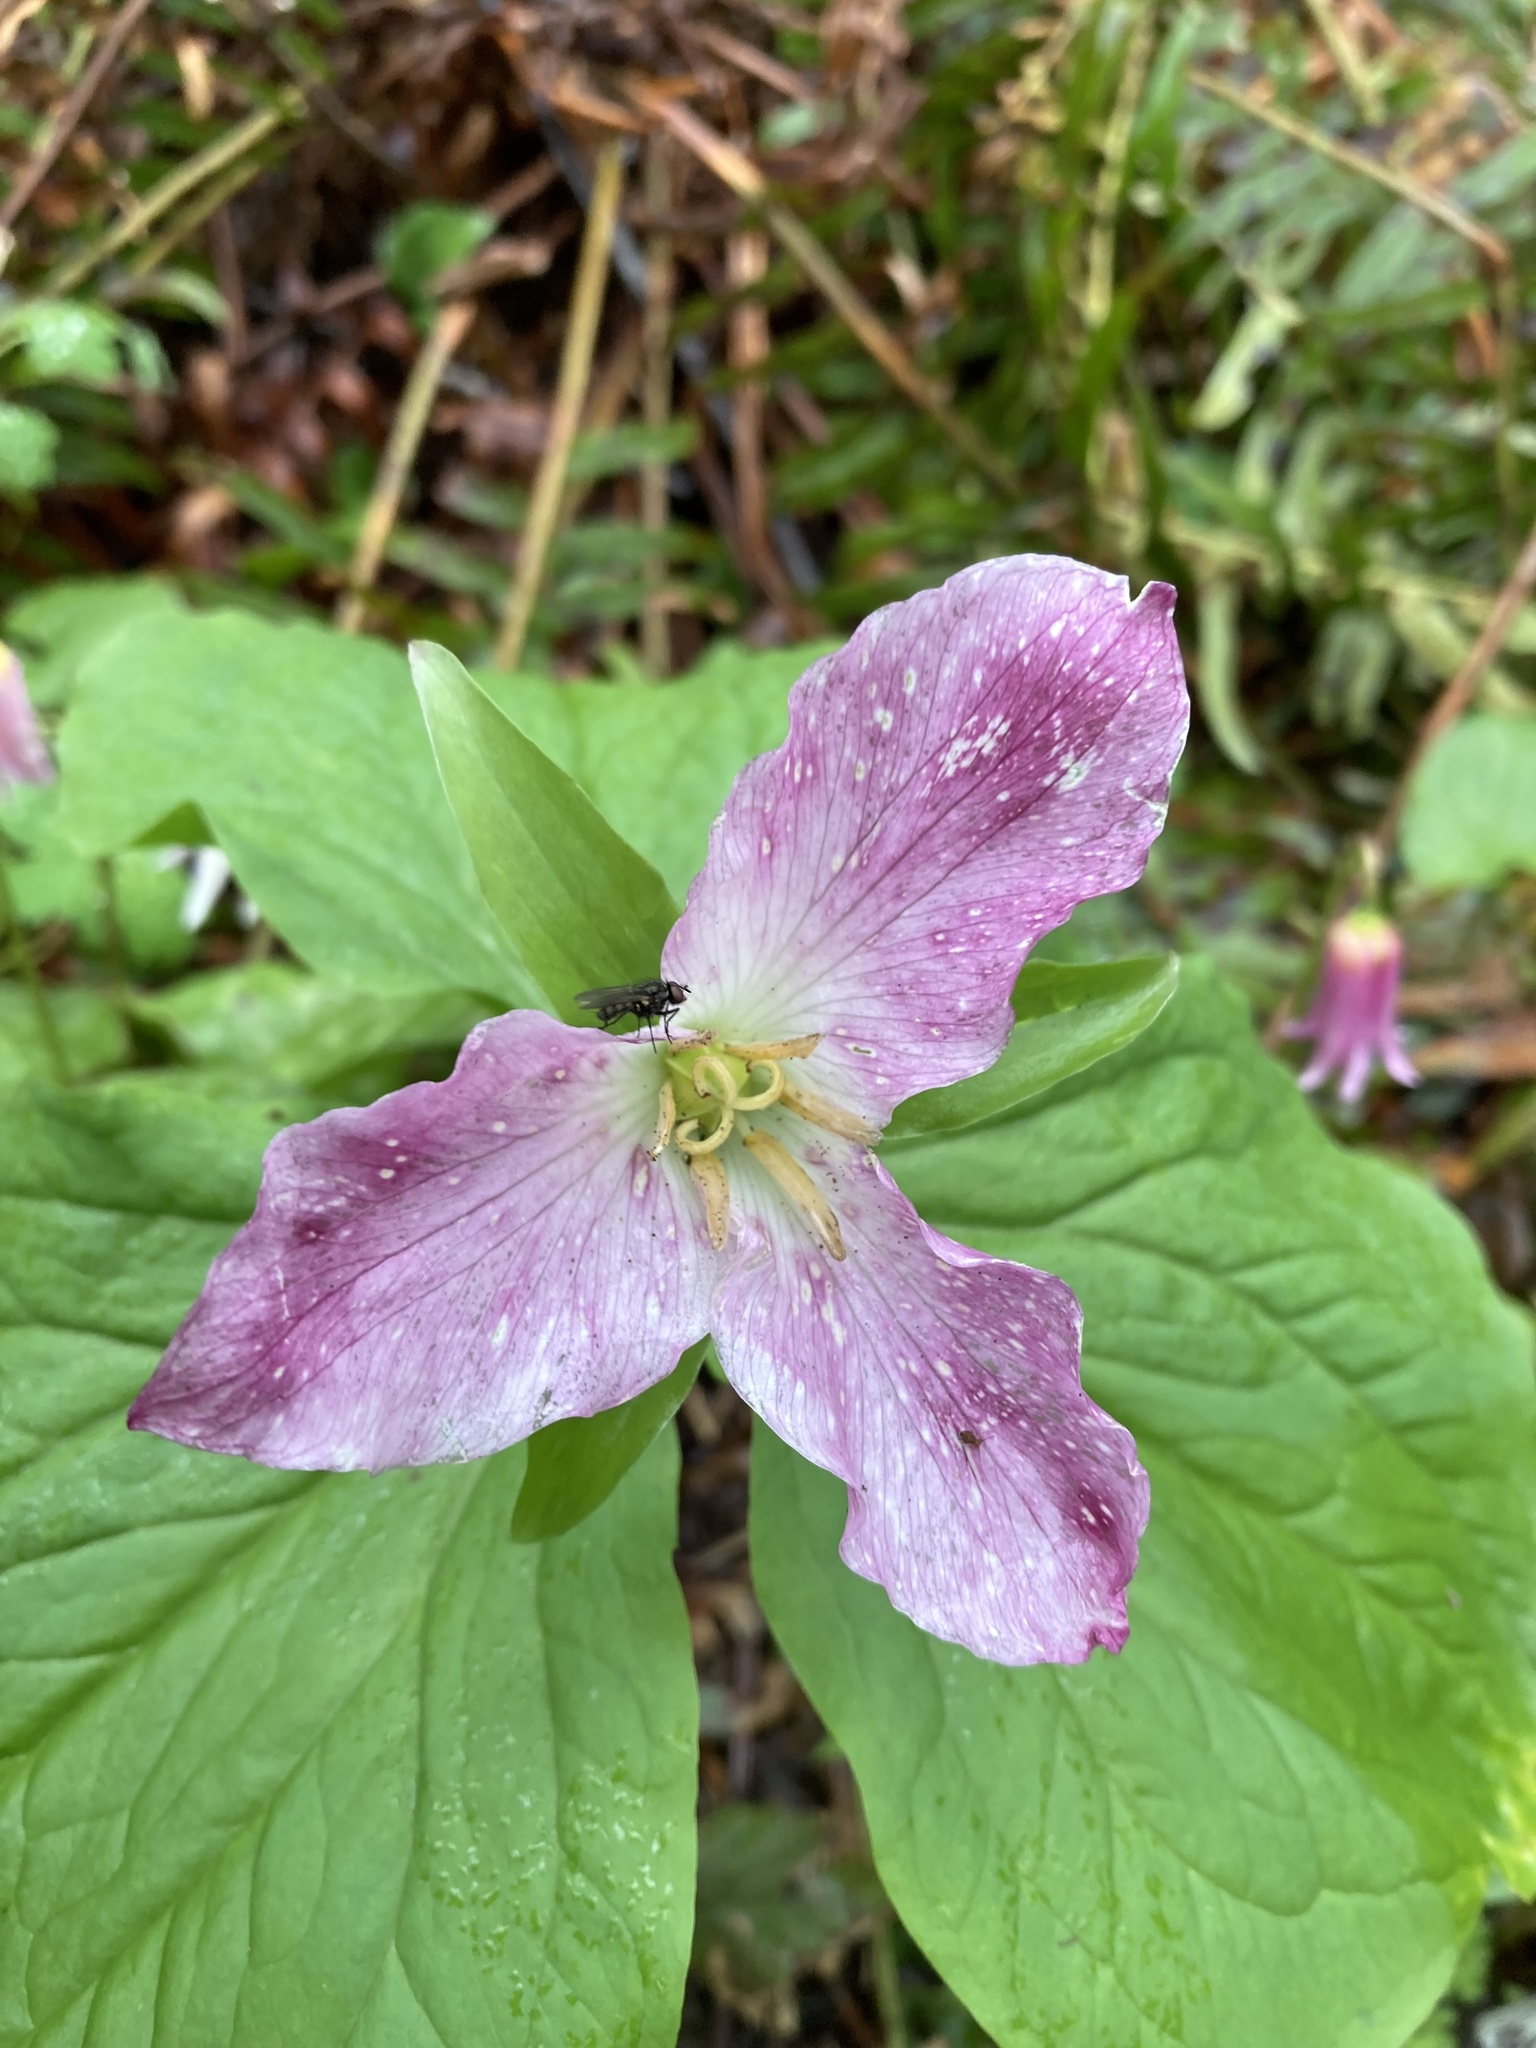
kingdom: Plantae
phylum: Tracheophyta
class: Liliopsida
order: Liliales
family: Melanthiaceae
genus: Trillium
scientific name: Trillium ovatum
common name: Pacific trillium
